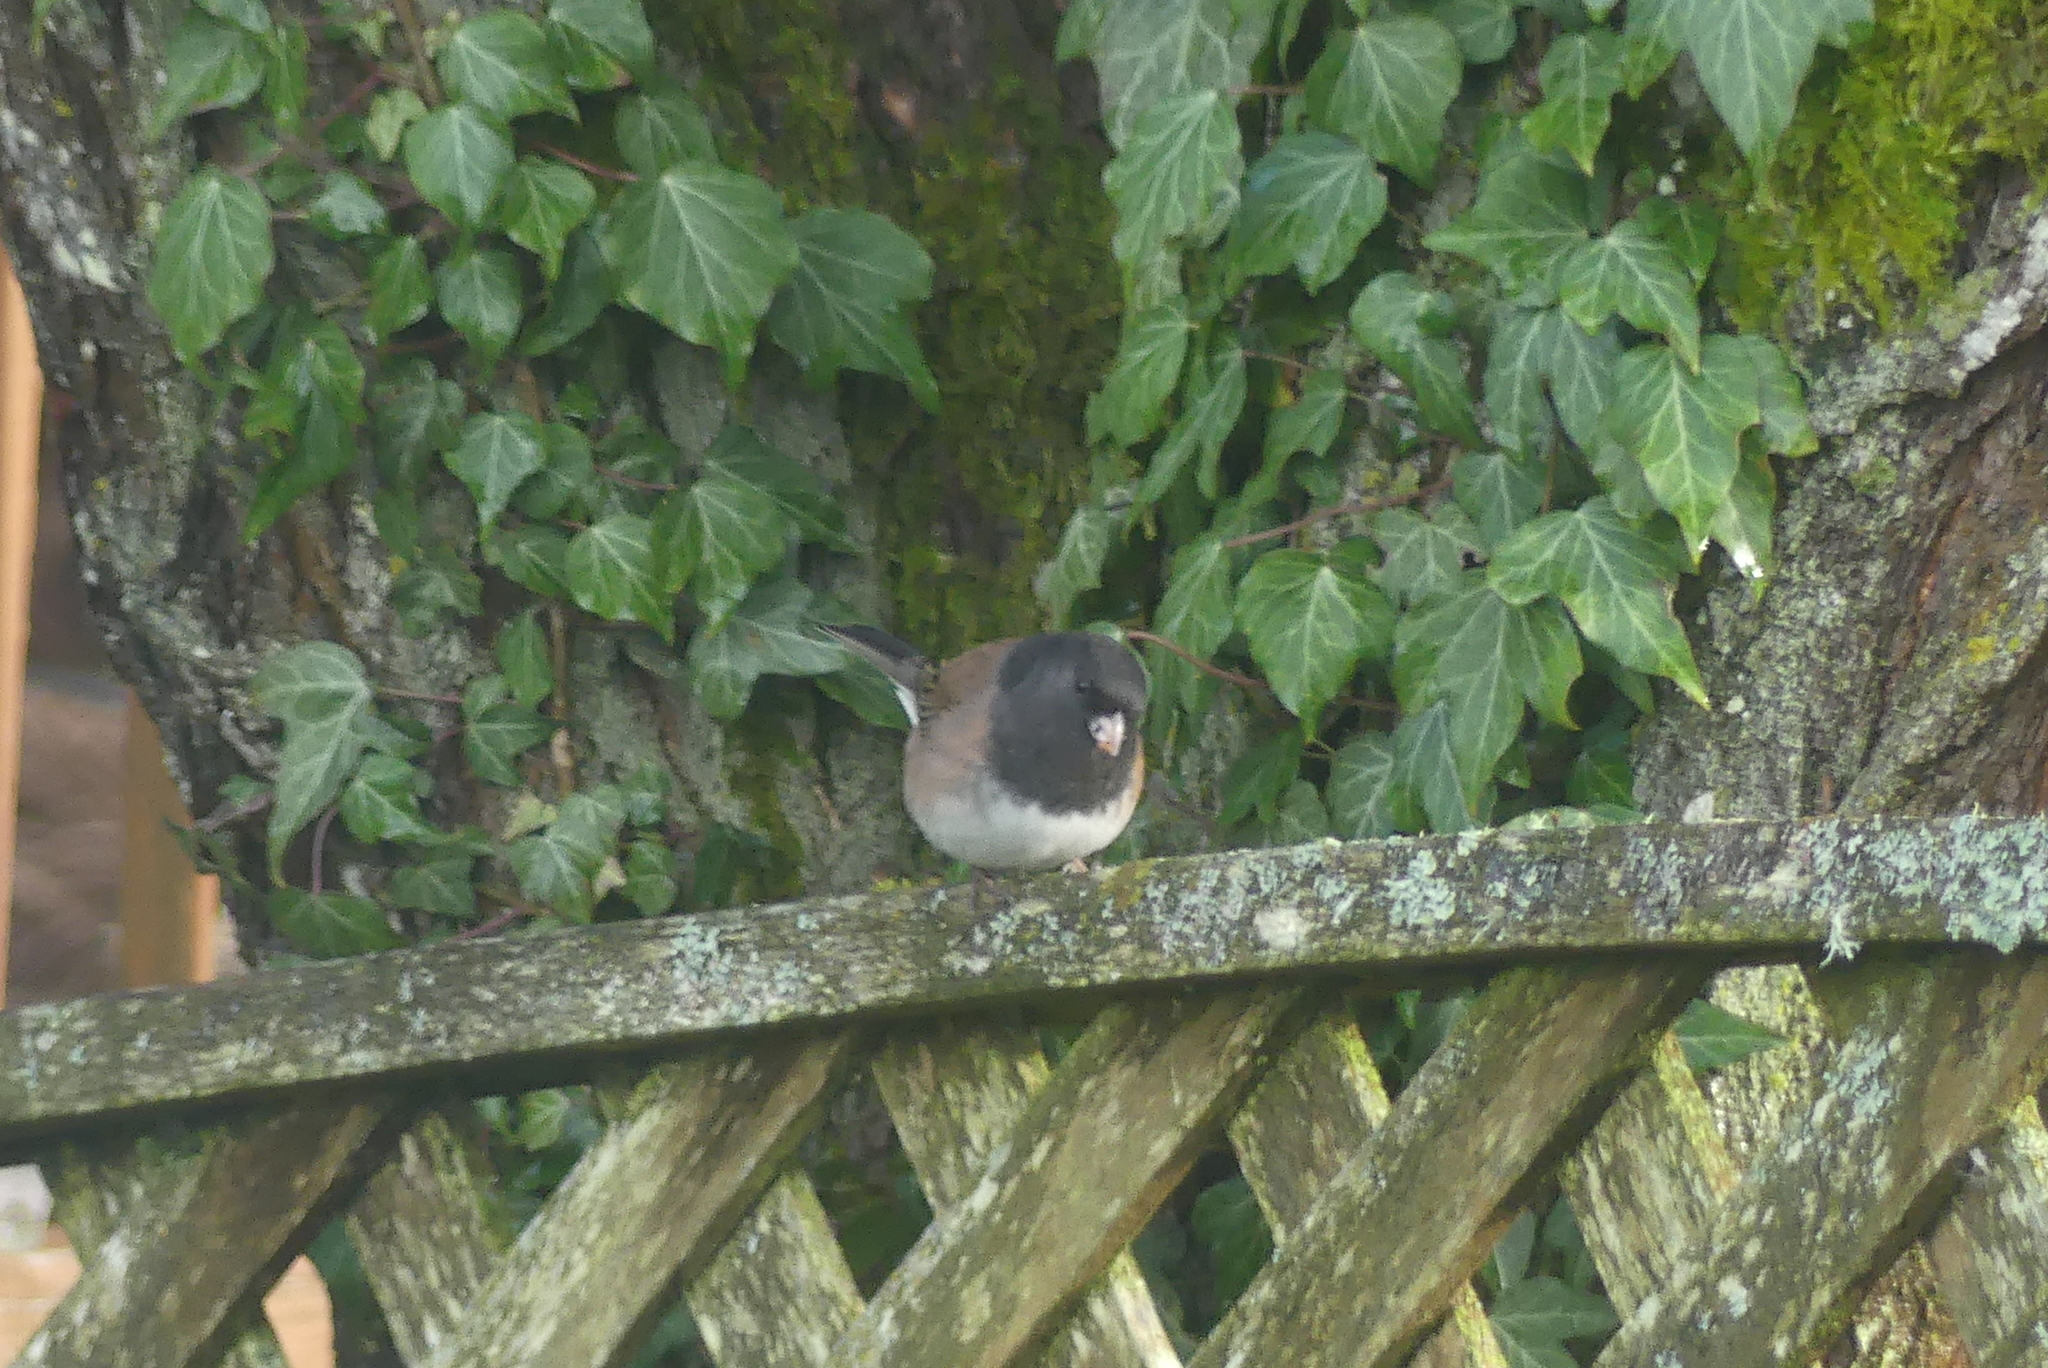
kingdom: Animalia
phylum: Chordata
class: Aves
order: Passeriformes
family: Passerellidae
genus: Junco
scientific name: Junco hyemalis
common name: Dark-eyed junco
